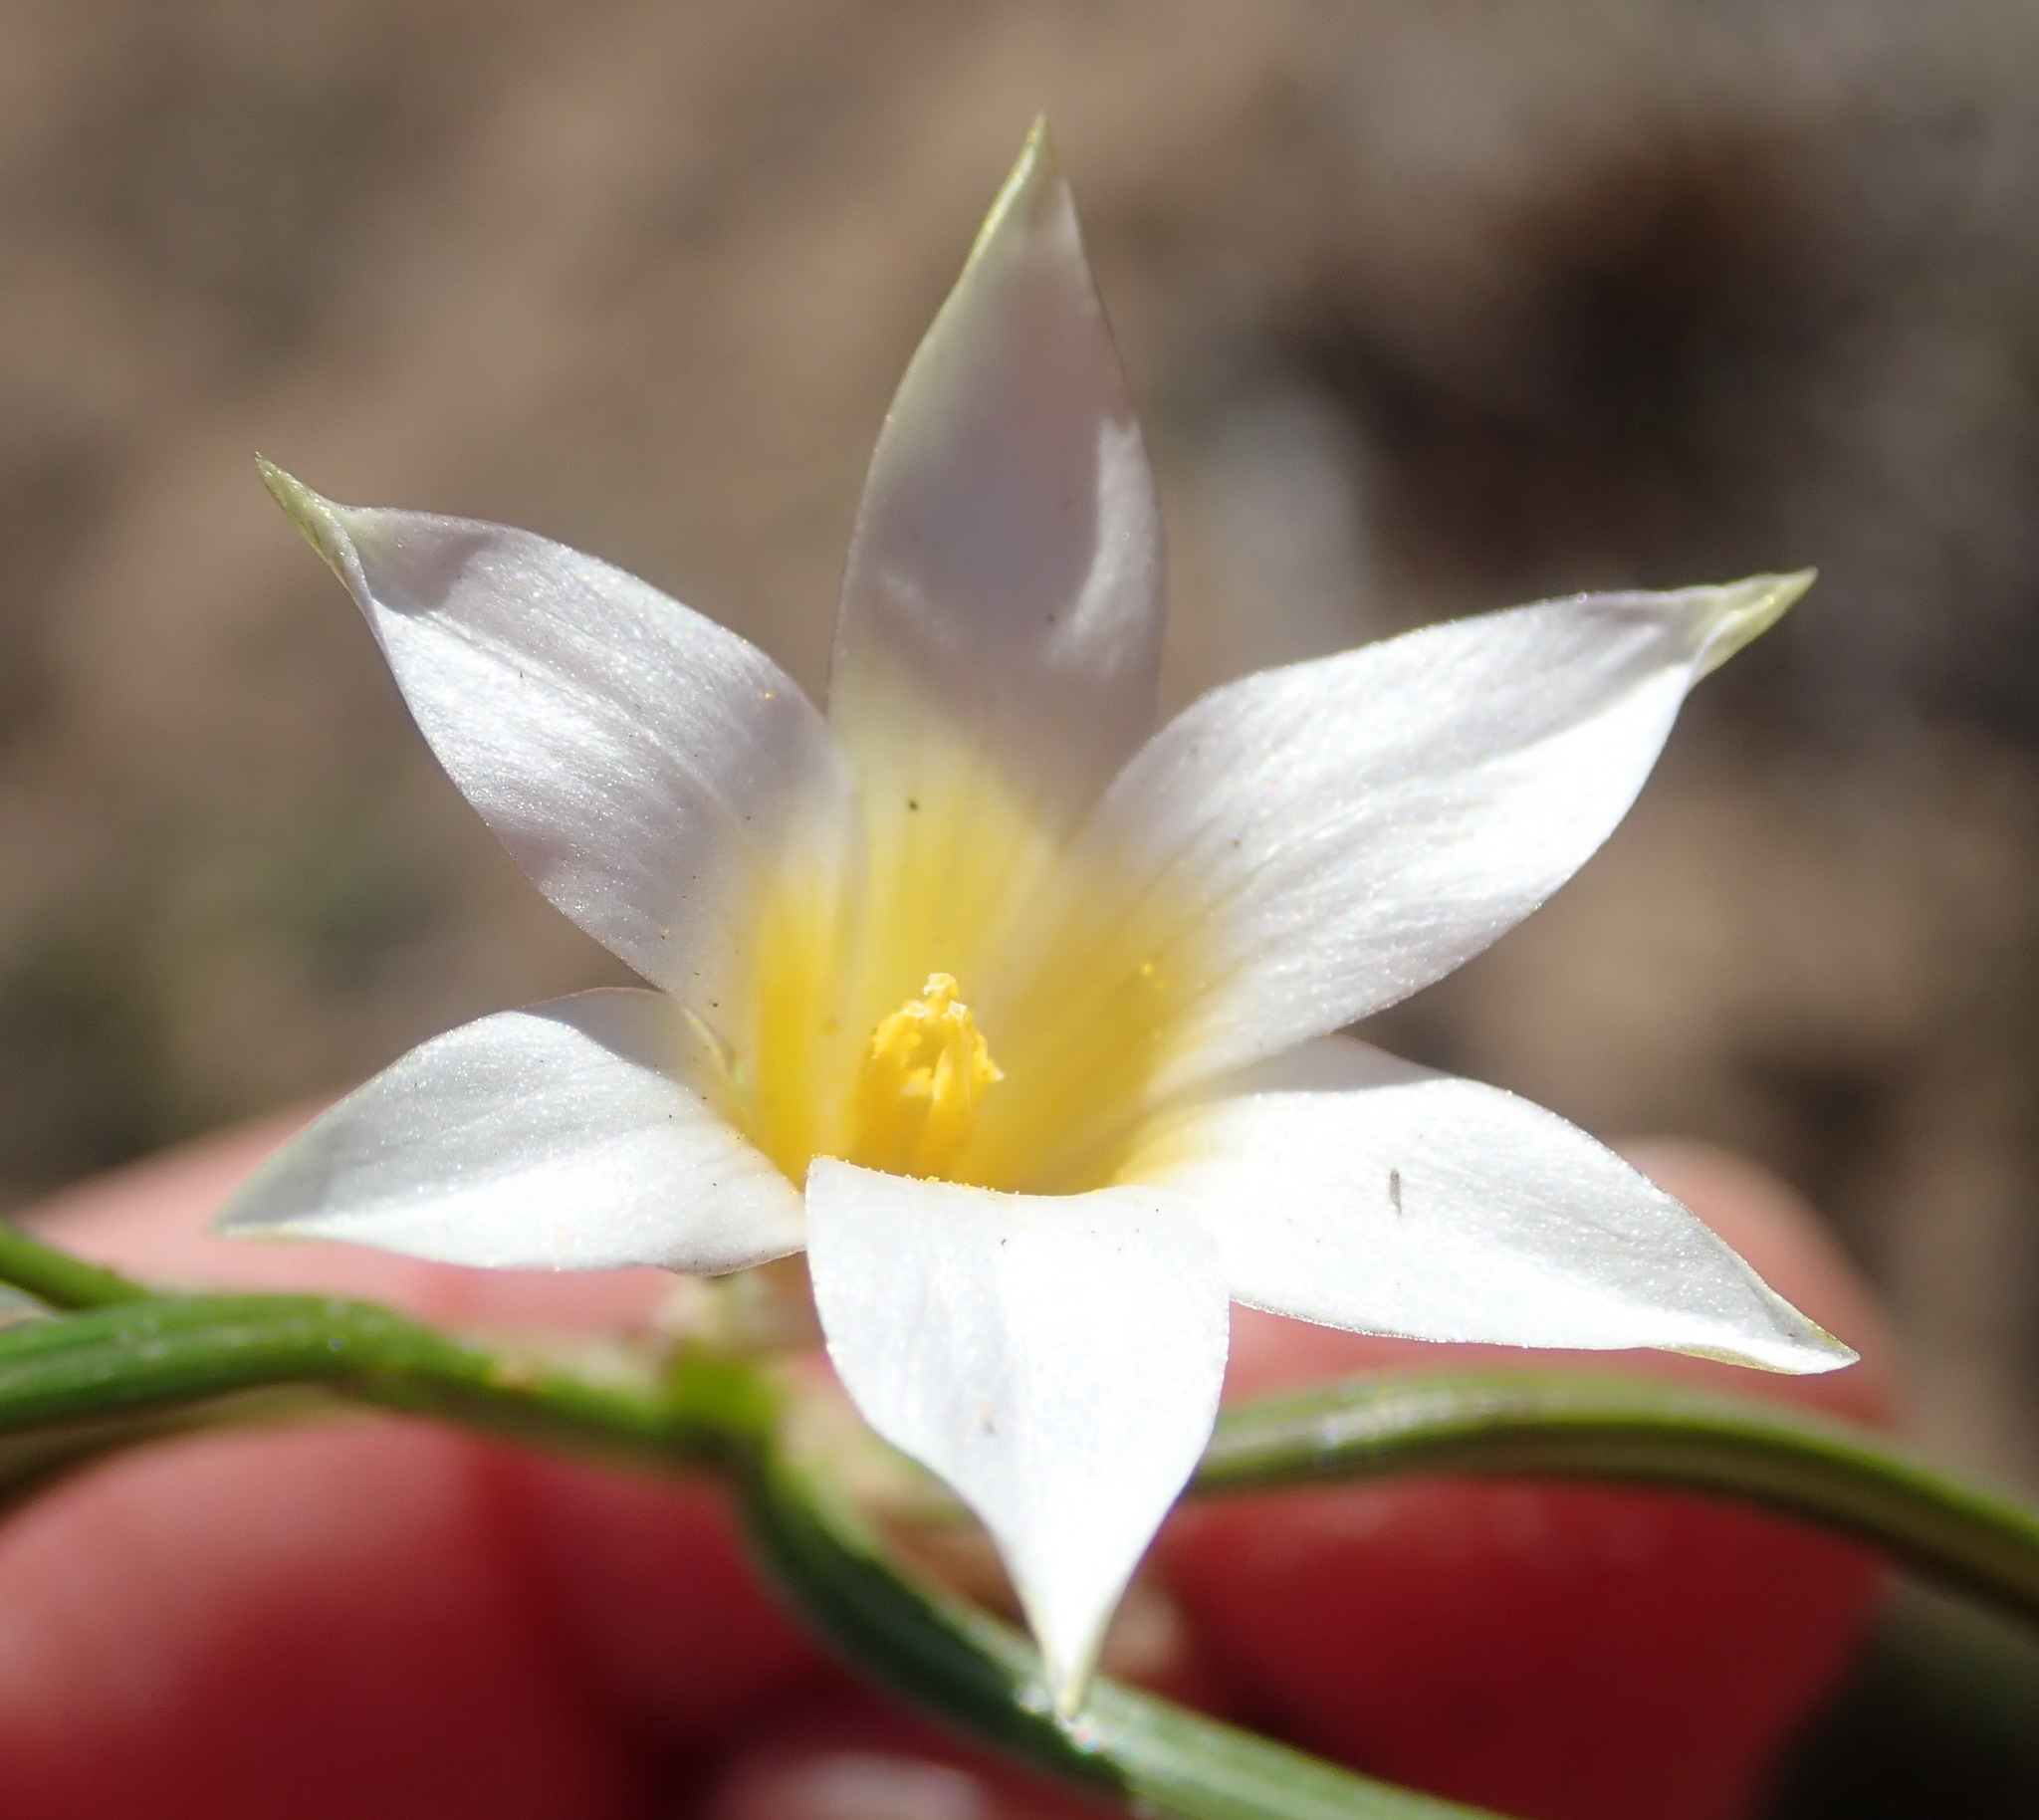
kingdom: Plantae
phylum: Tracheophyta
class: Liliopsida
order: Asparagales
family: Iridaceae
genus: Romulea
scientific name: Romulea flava
